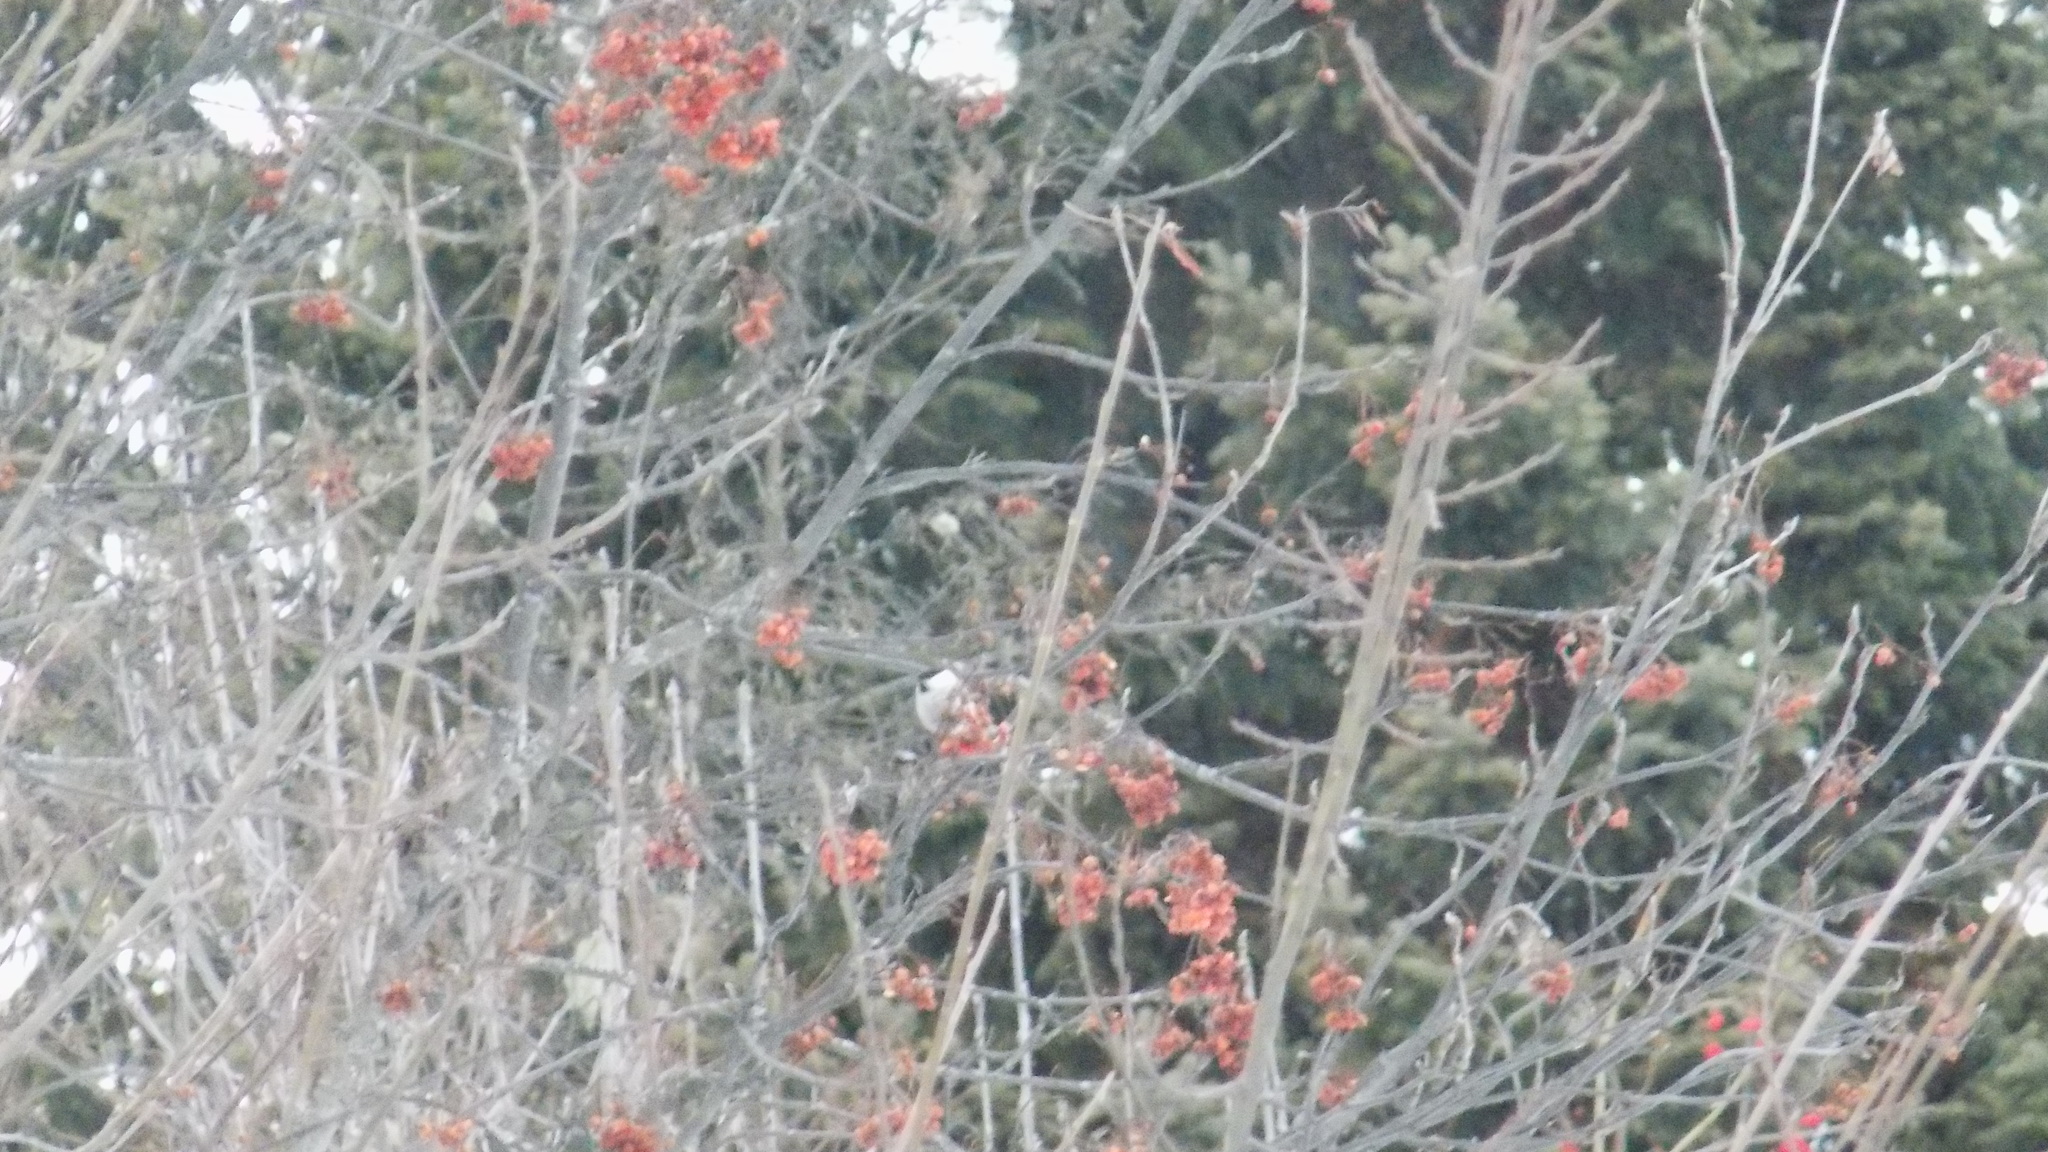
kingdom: Animalia
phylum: Chordata
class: Aves
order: Passeriformes
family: Paridae
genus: Poecile
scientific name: Poecile
